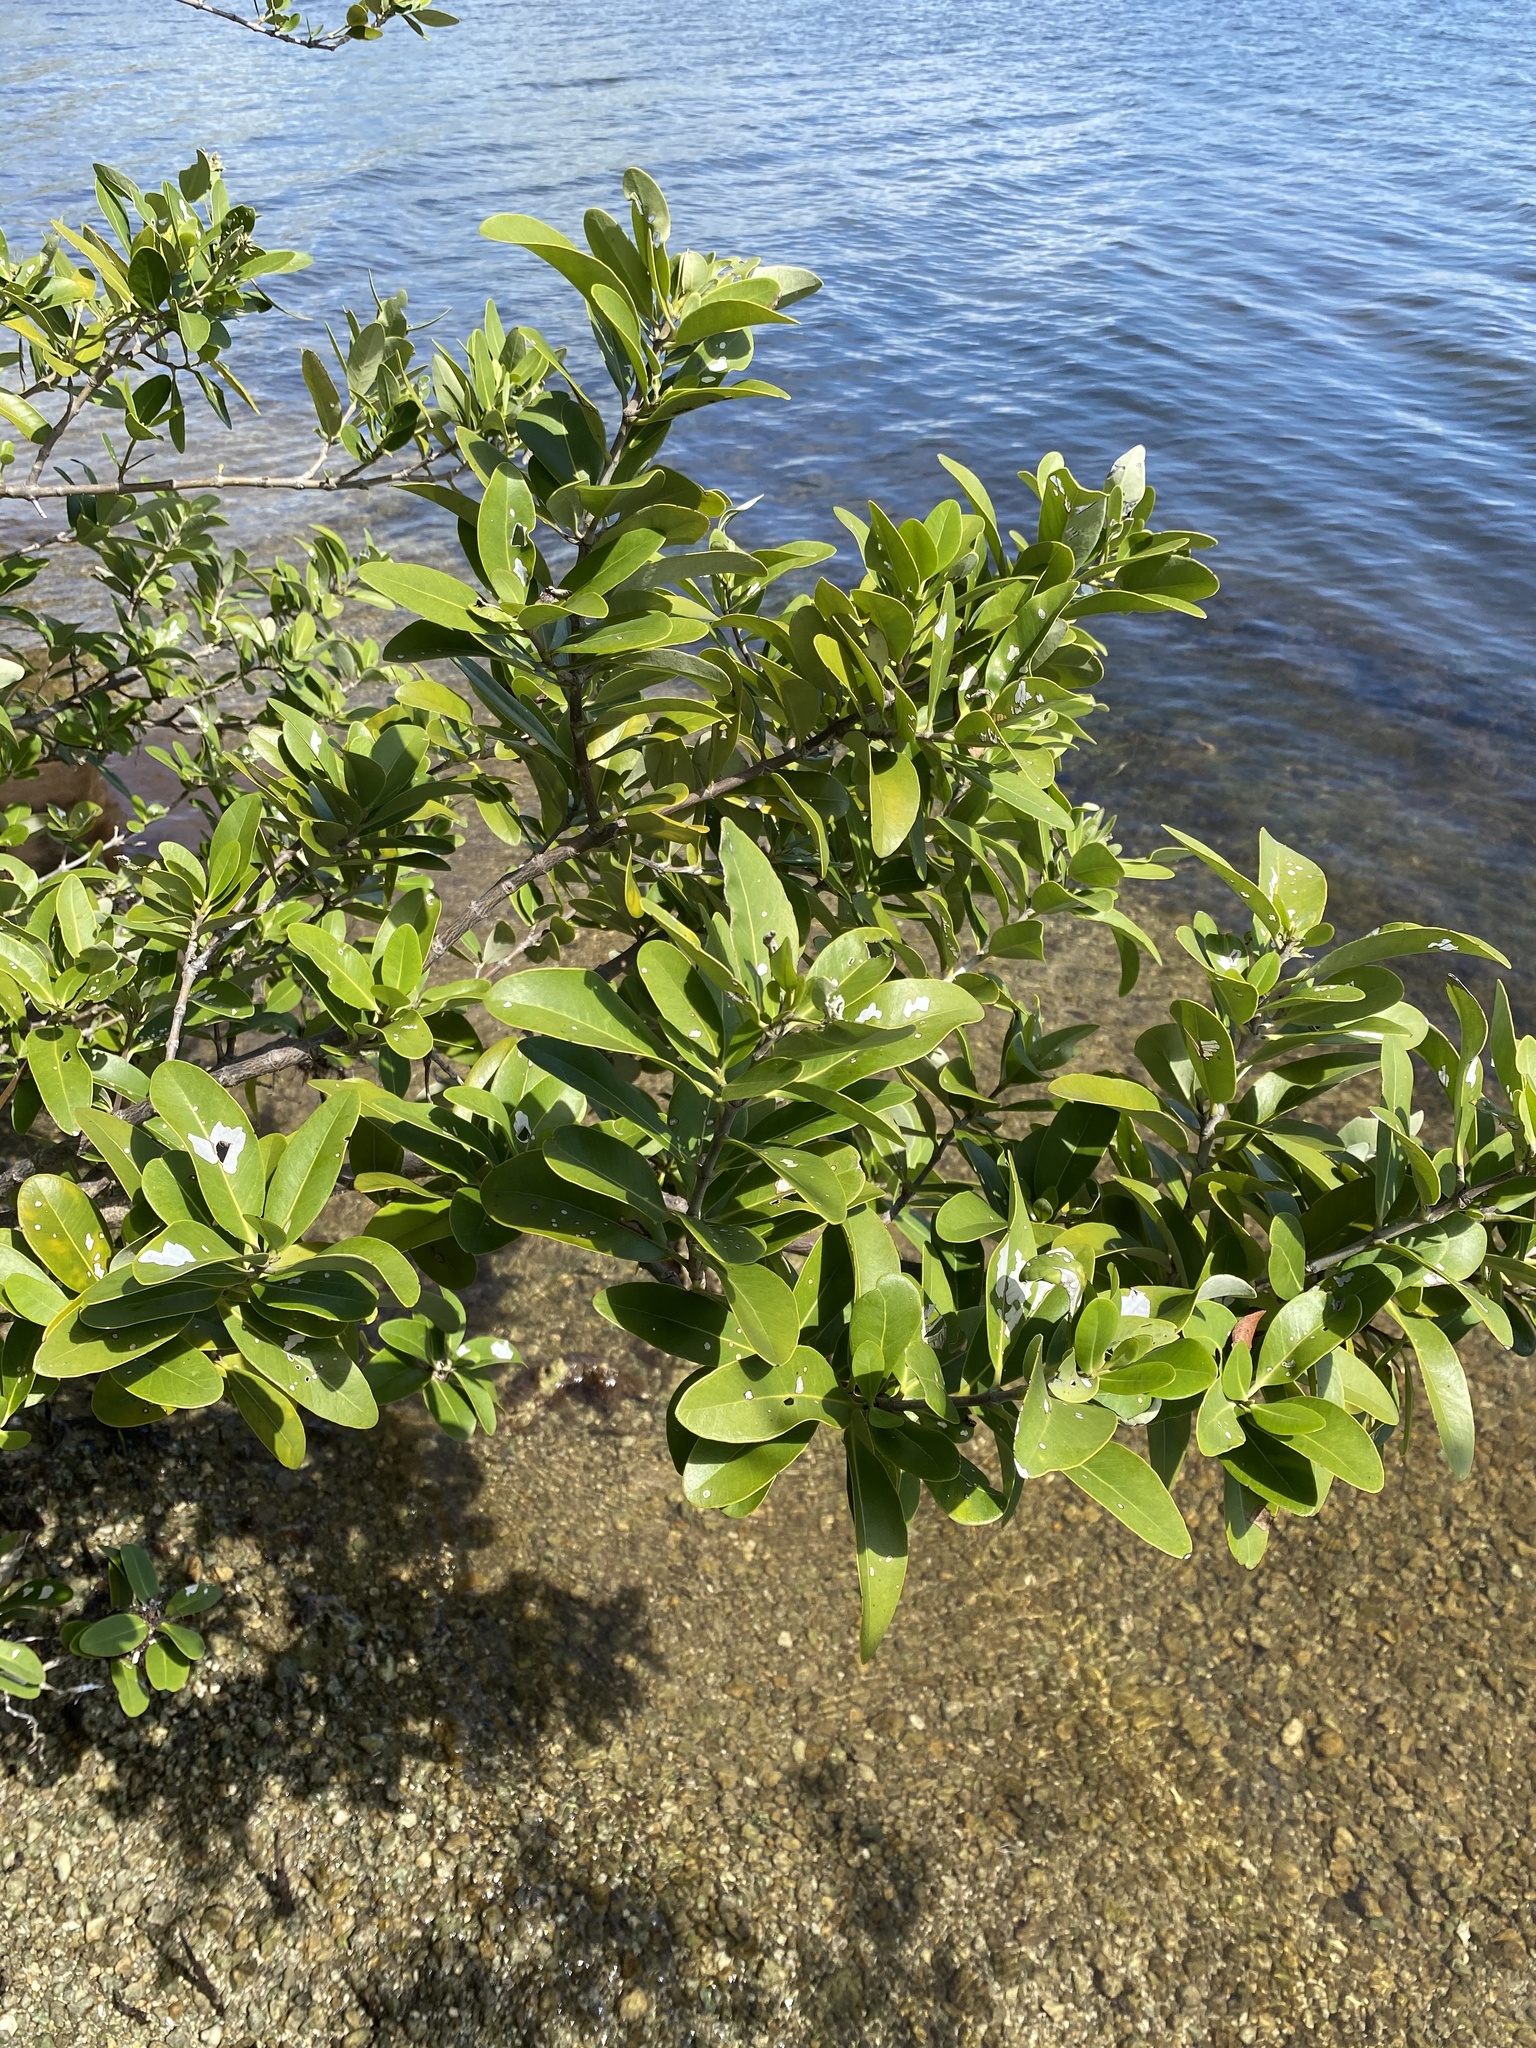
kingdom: Plantae
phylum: Tracheophyta
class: Magnoliopsida
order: Lamiales
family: Acanthaceae
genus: Avicennia
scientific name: Avicennia germinans
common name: Black mangrove
